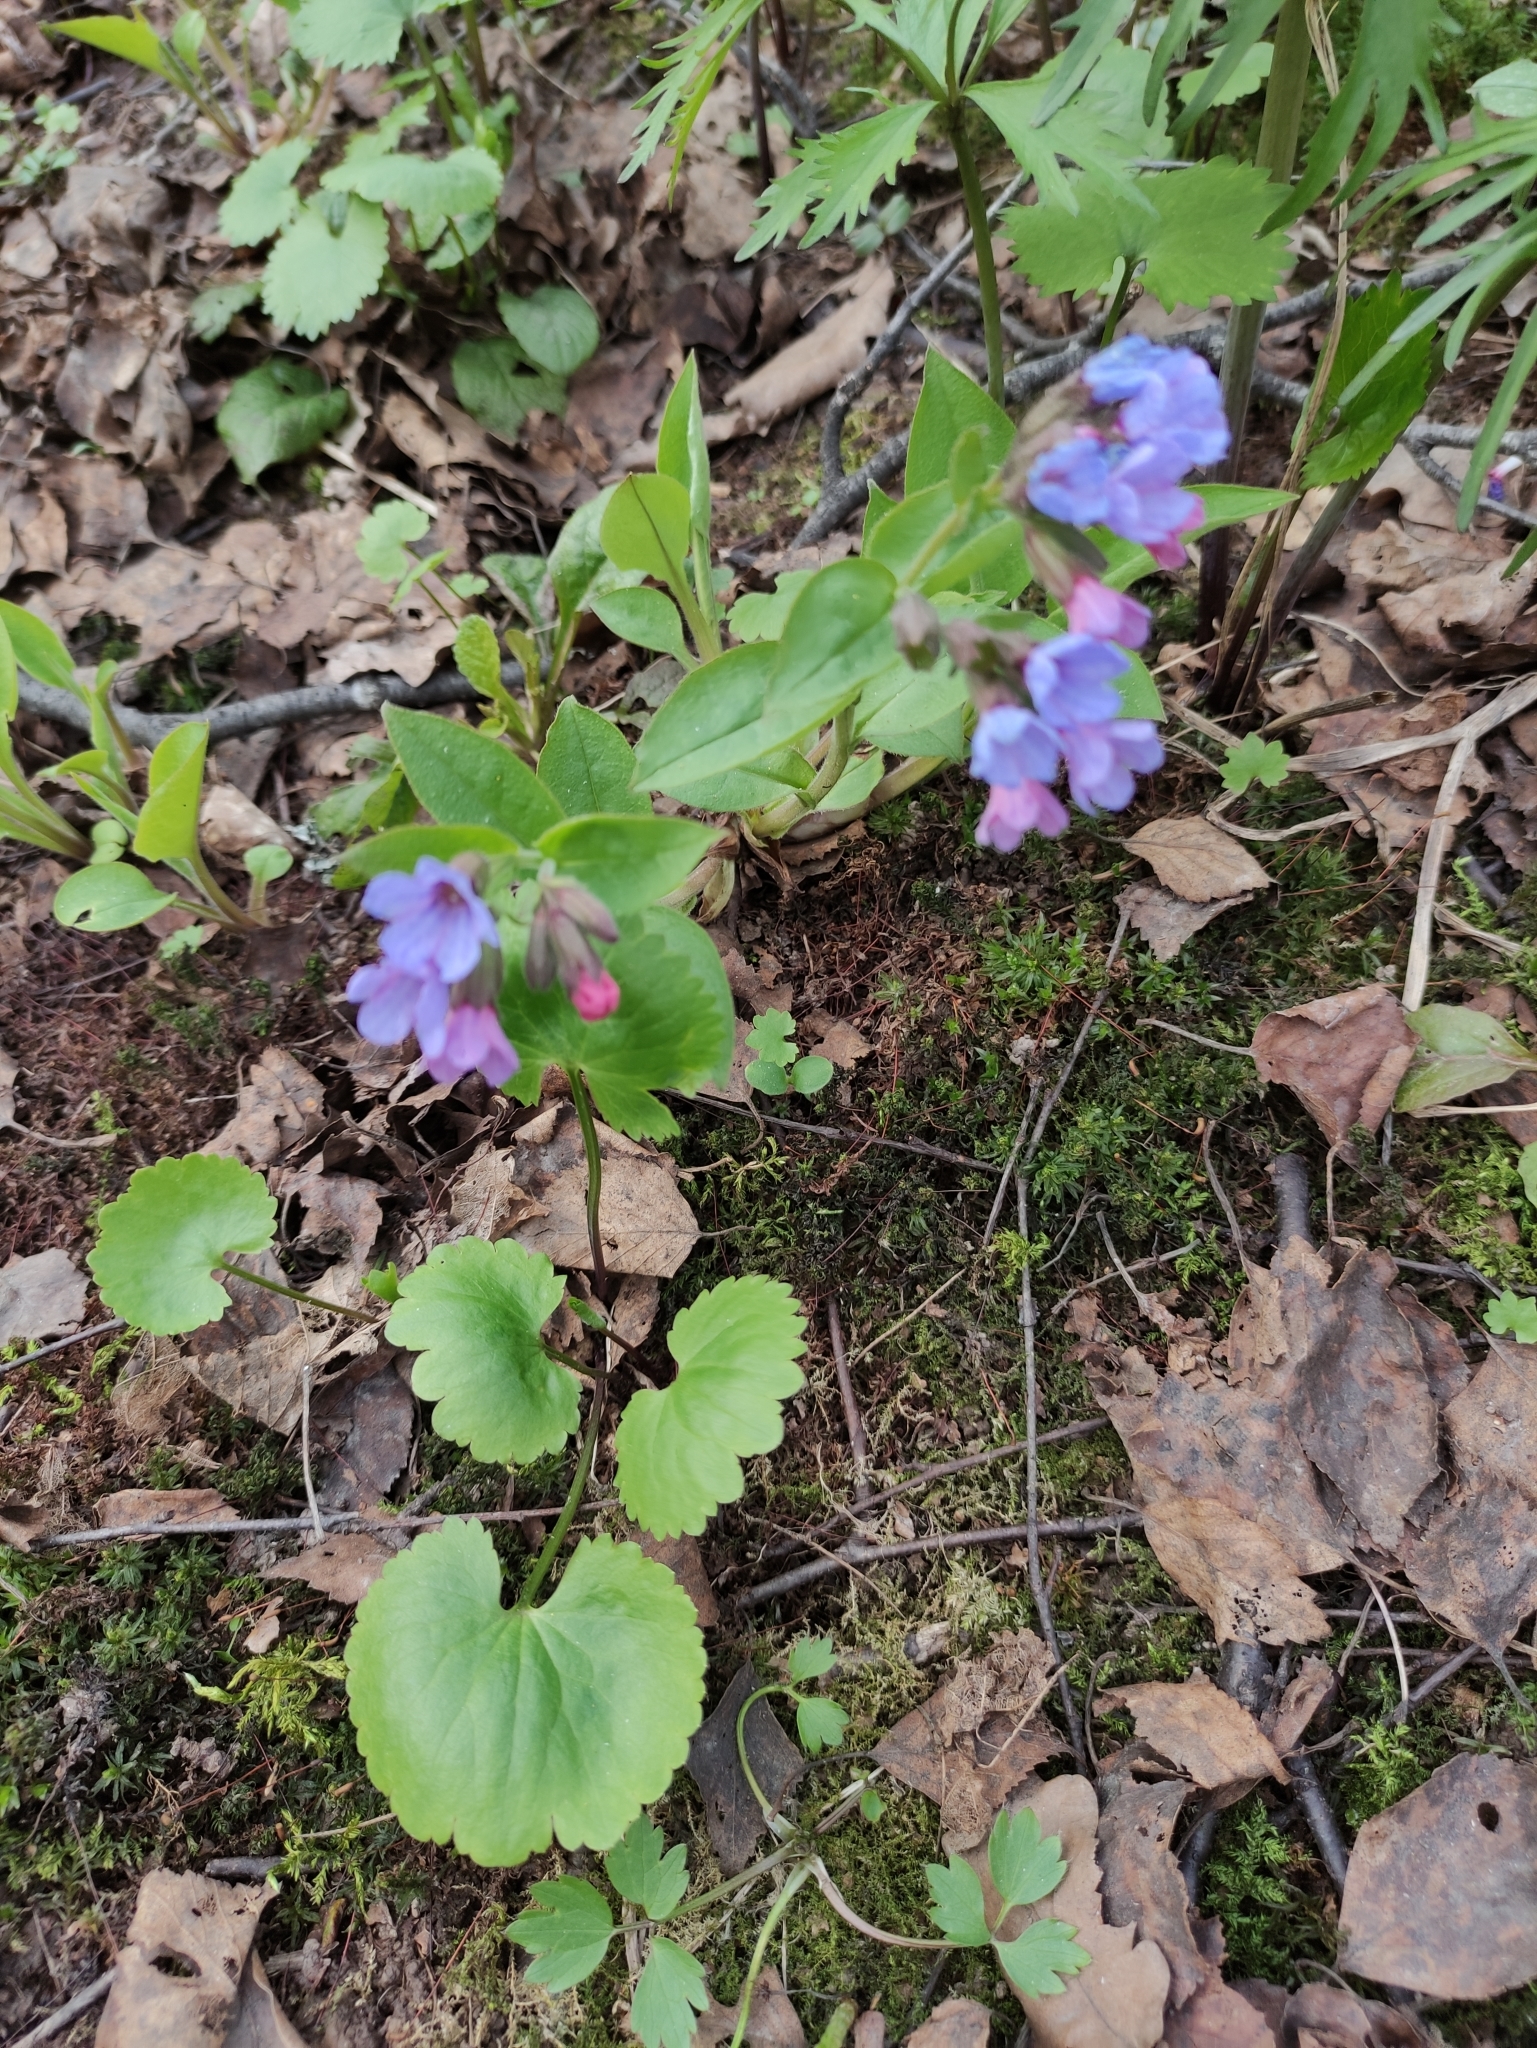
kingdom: Plantae
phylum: Tracheophyta
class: Magnoliopsida
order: Boraginales
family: Boraginaceae
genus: Pulmonaria
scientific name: Pulmonaria obscura
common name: Suffolk lungwort
